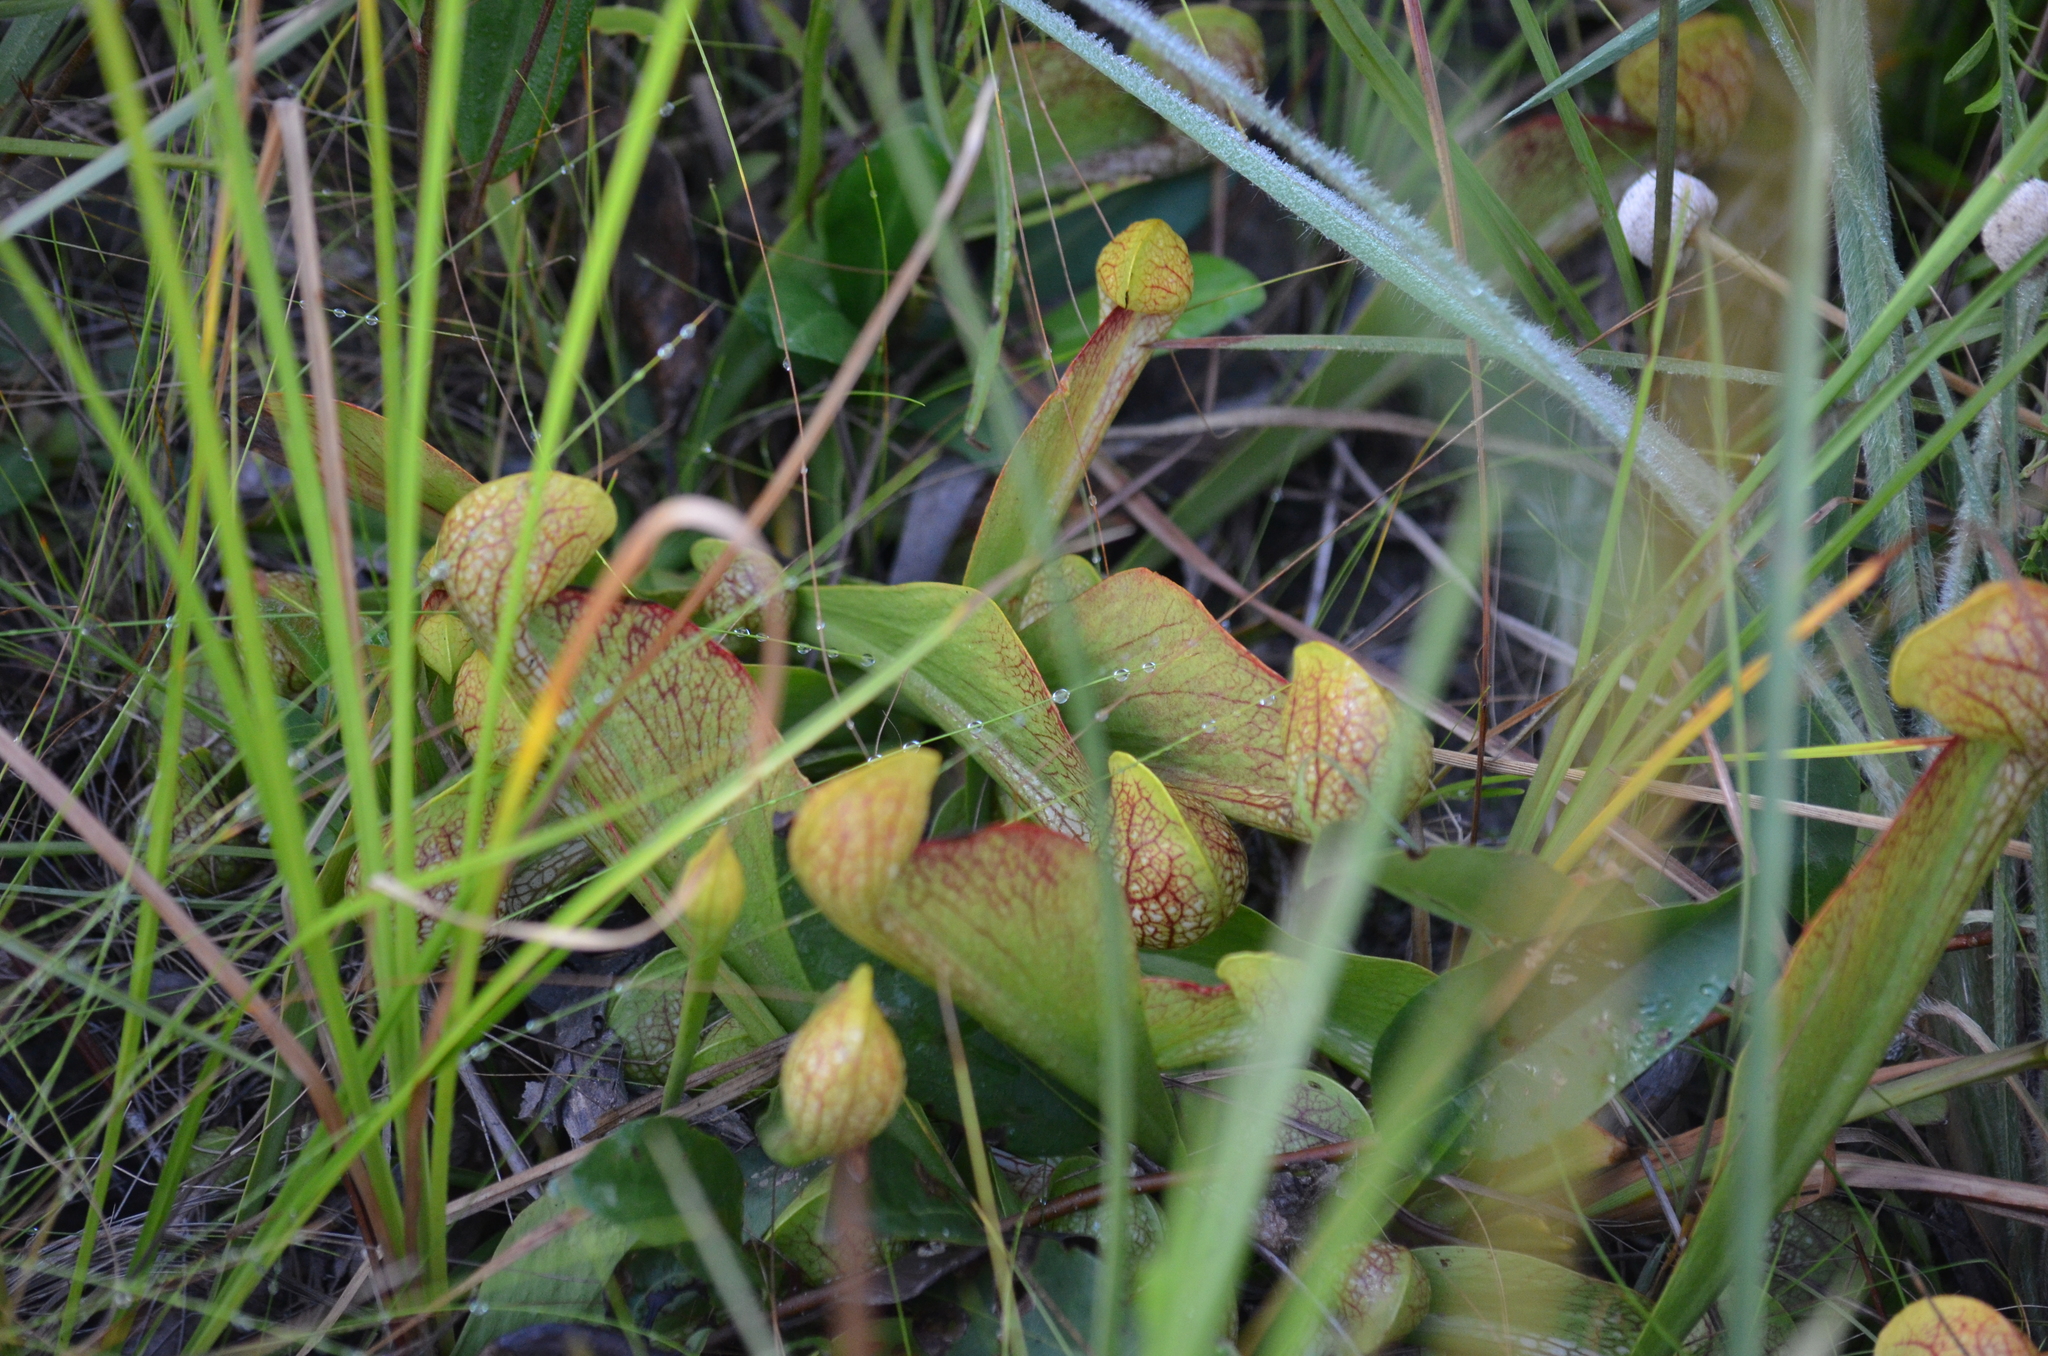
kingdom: Plantae
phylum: Tracheophyta
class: Magnoliopsida
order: Ericales
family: Sarraceniaceae
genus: Sarracenia
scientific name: Sarracenia psittacina
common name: Parrot pitcherplant
